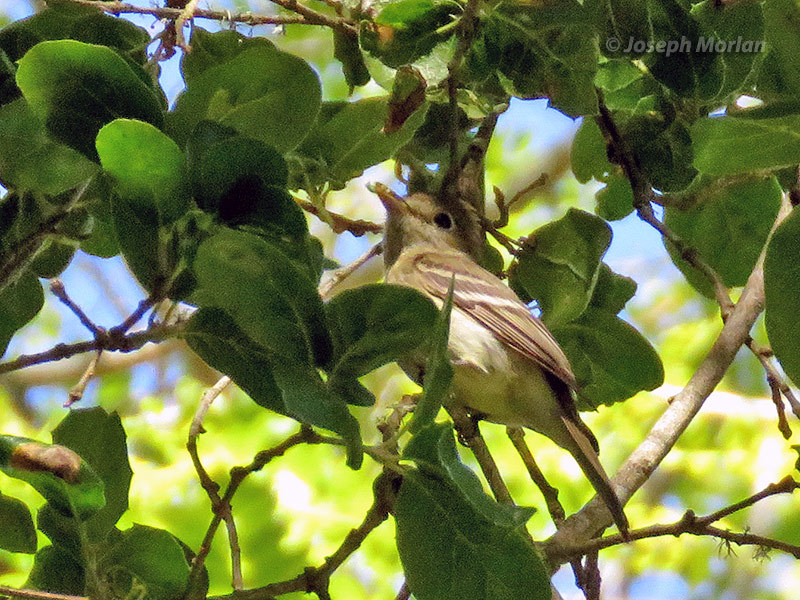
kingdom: Animalia
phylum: Chordata
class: Aves
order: Passeriformes
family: Tyrannidae
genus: Empidonax
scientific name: Empidonax difficilis
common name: Pacific-slope flycatcher
